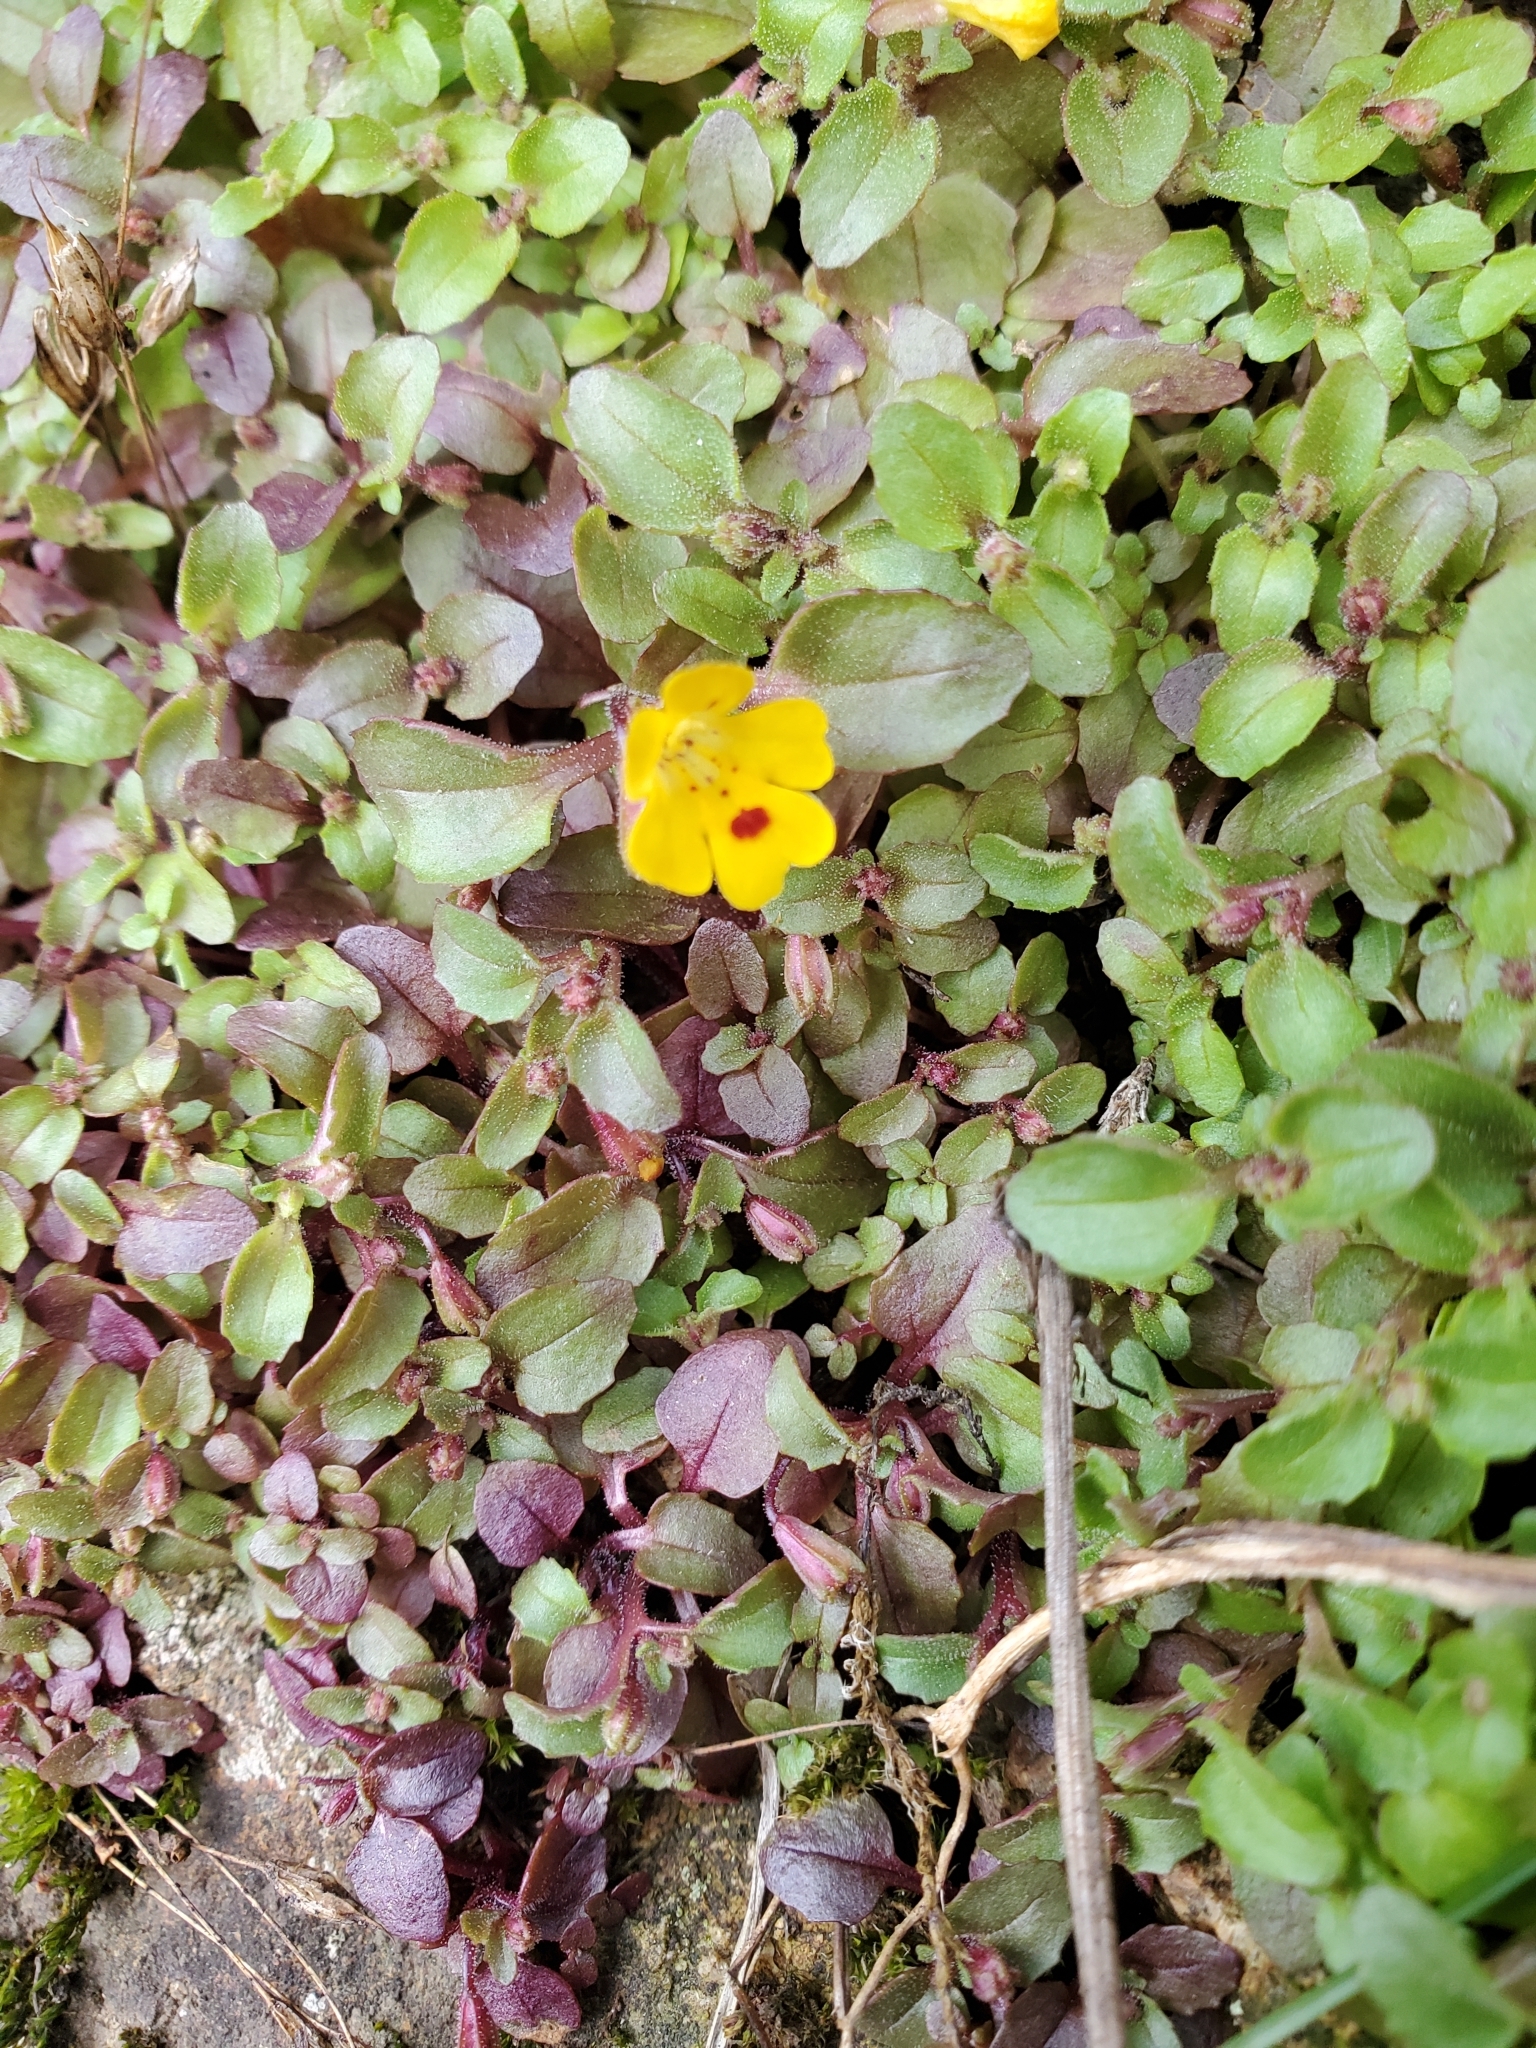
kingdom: Plantae
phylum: Tracheophyta
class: Magnoliopsida
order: Lamiales
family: Phrymaceae
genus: Erythranthe
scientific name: Erythranthe alsinoides
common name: Chickweed monkeyflower
